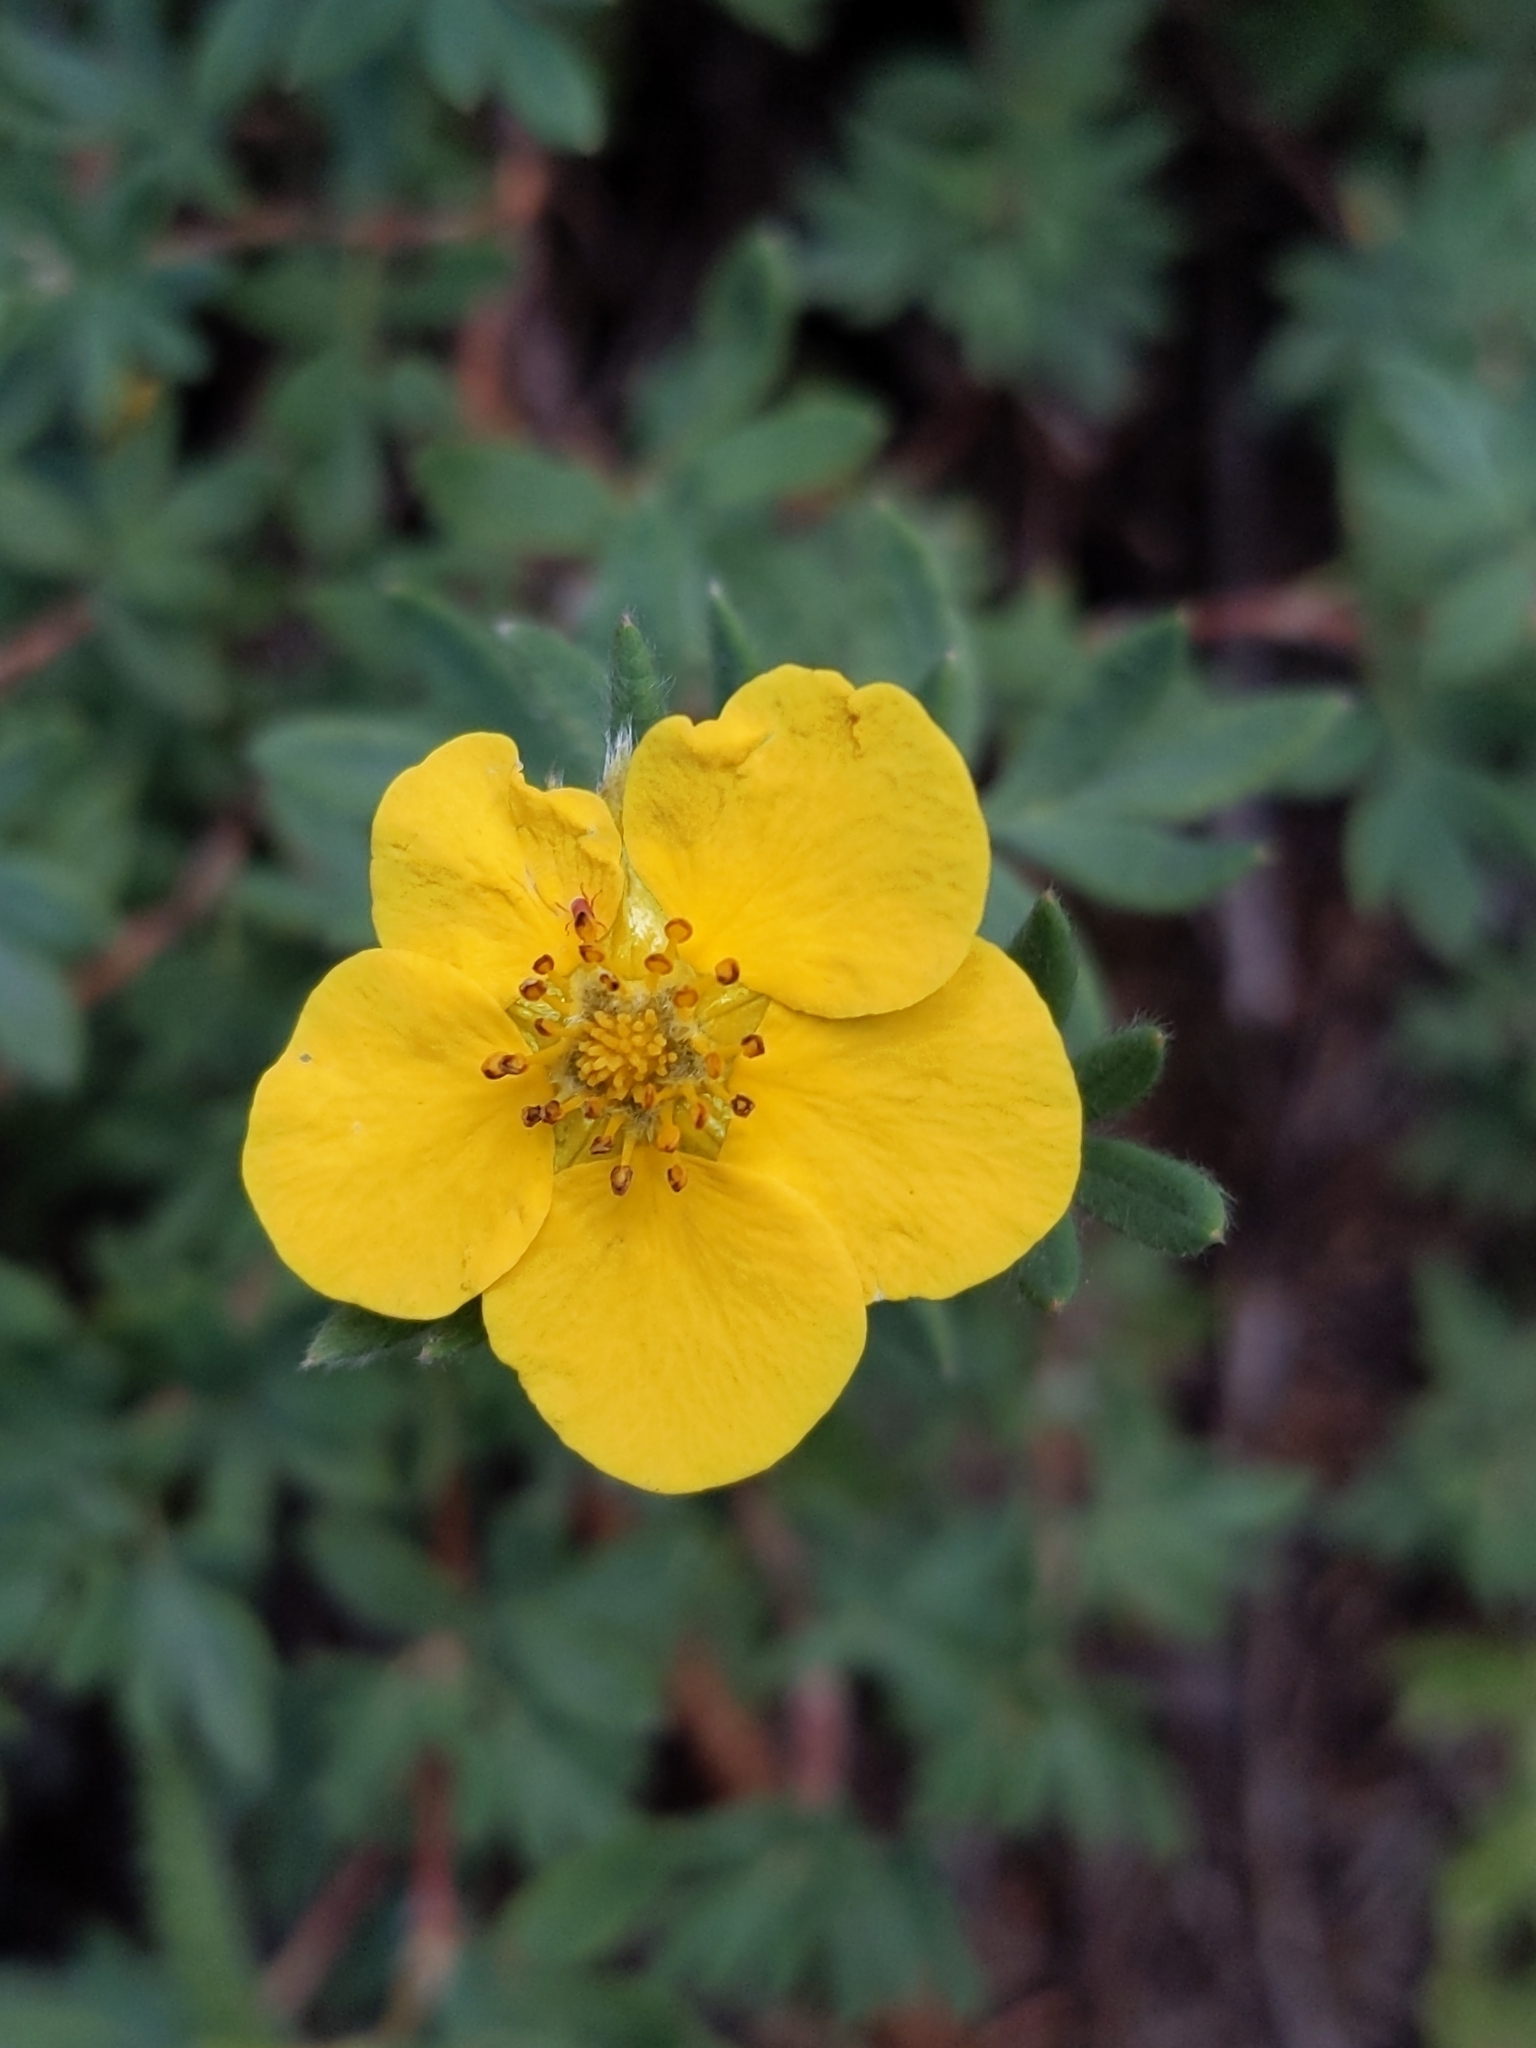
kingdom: Plantae
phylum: Tracheophyta
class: Magnoliopsida
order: Rosales
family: Rosaceae
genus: Dasiphora
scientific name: Dasiphora fruticosa
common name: Shrubby cinquefoil
